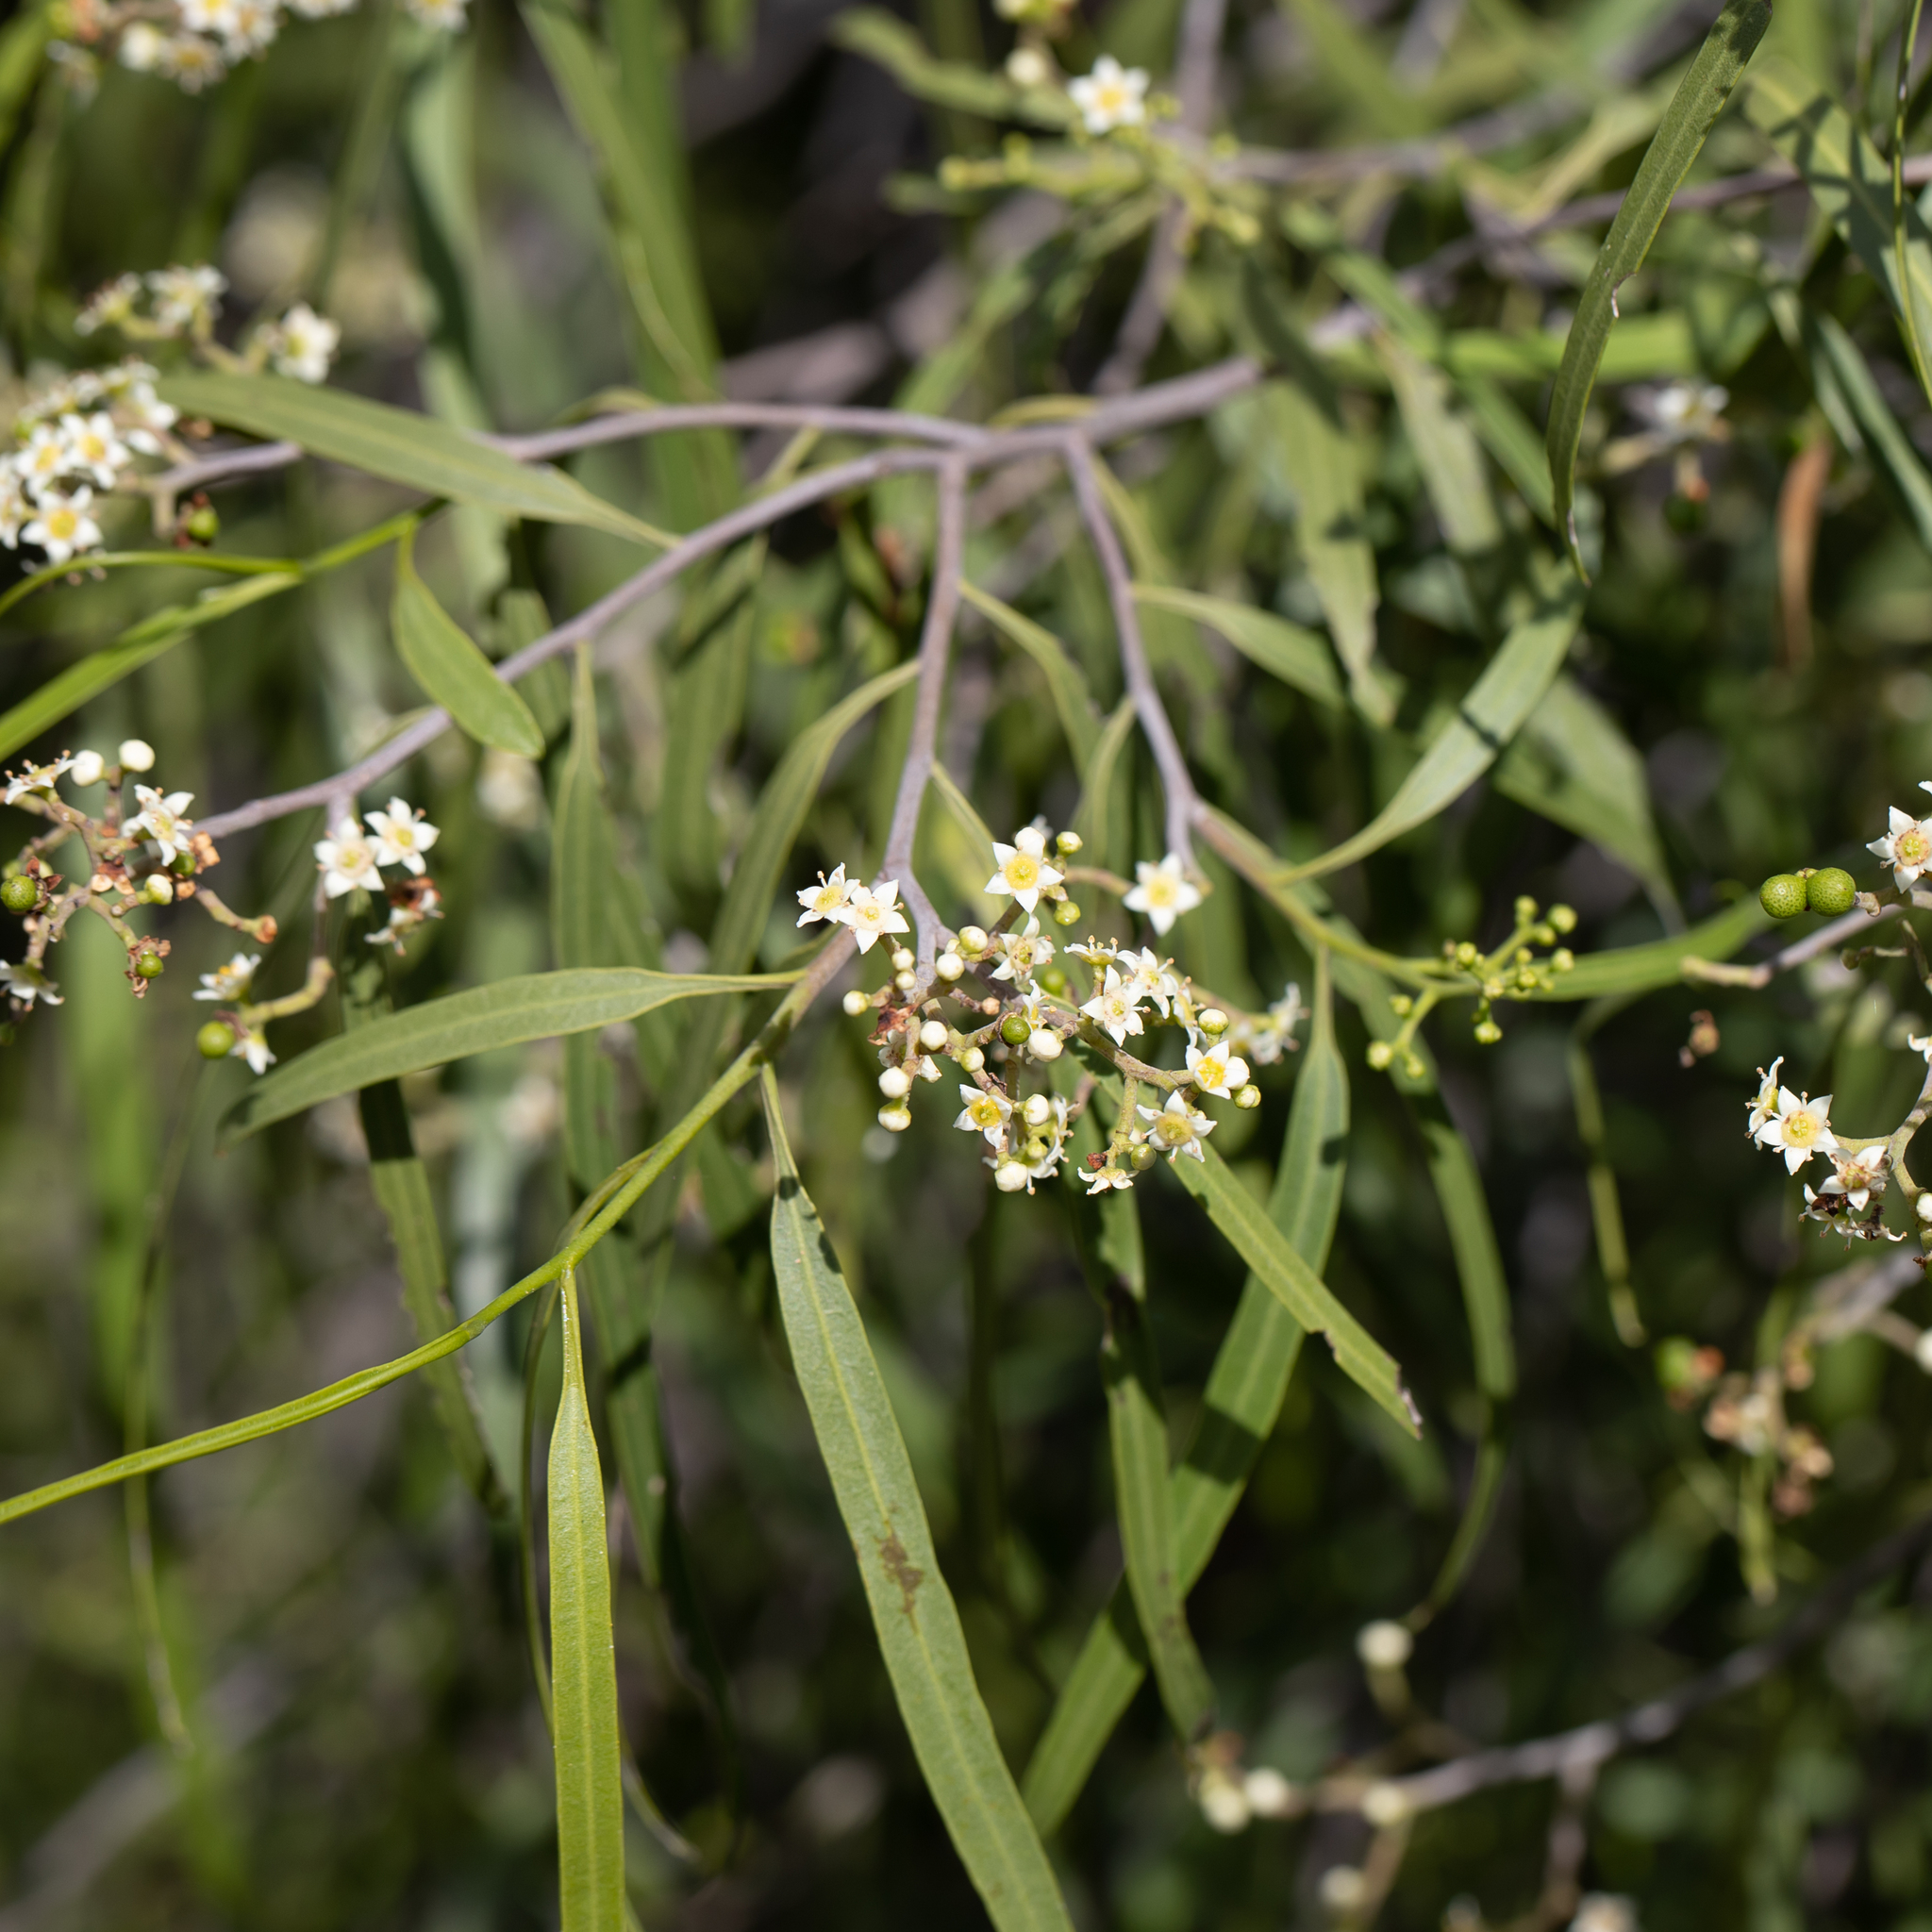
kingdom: Plantae
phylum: Tracheophyta
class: Magnoliopsida
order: Sapindales
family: Rutaceae
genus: Geijera
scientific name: Geijera parviflora
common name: Wilga
